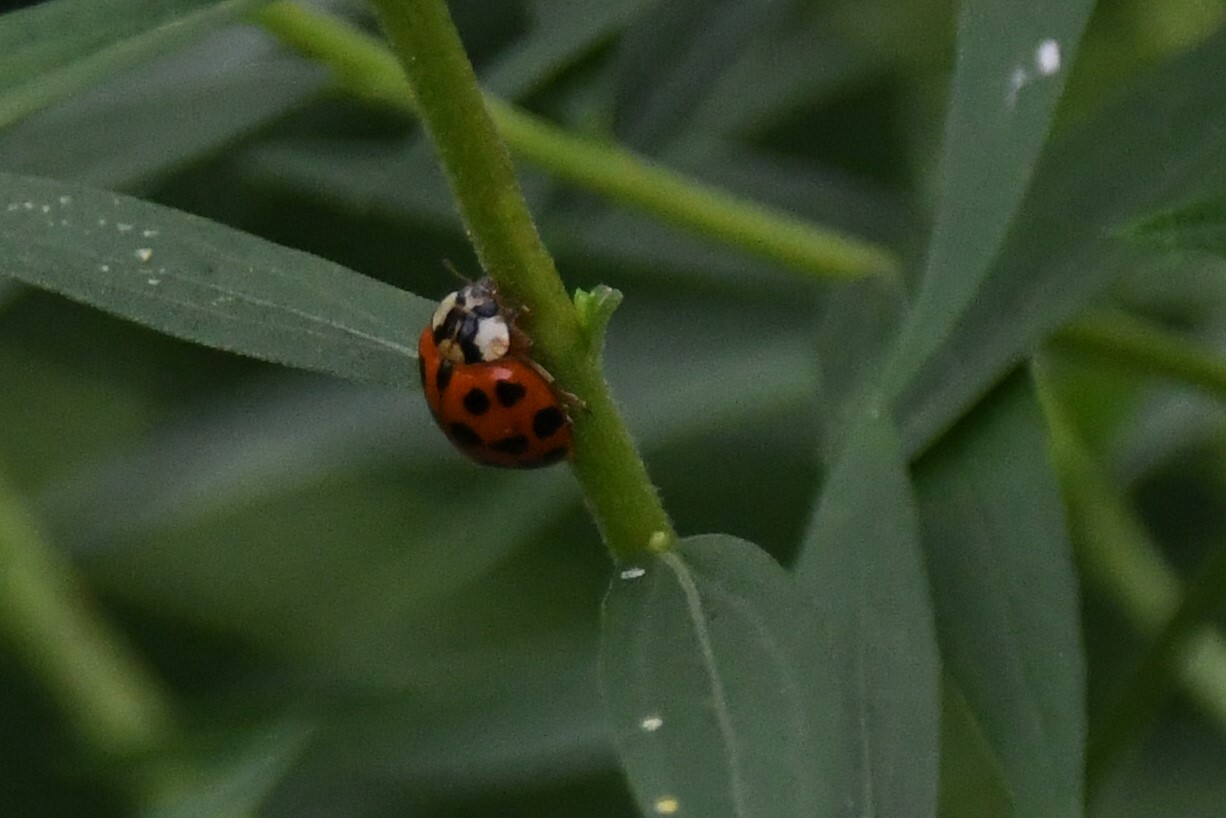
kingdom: Animalia
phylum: Arthropoda
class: Insecta
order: Coleoptera
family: Coccinellidae
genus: Harmonia
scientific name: Harmonia axyridis
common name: Harlequin ladybird
